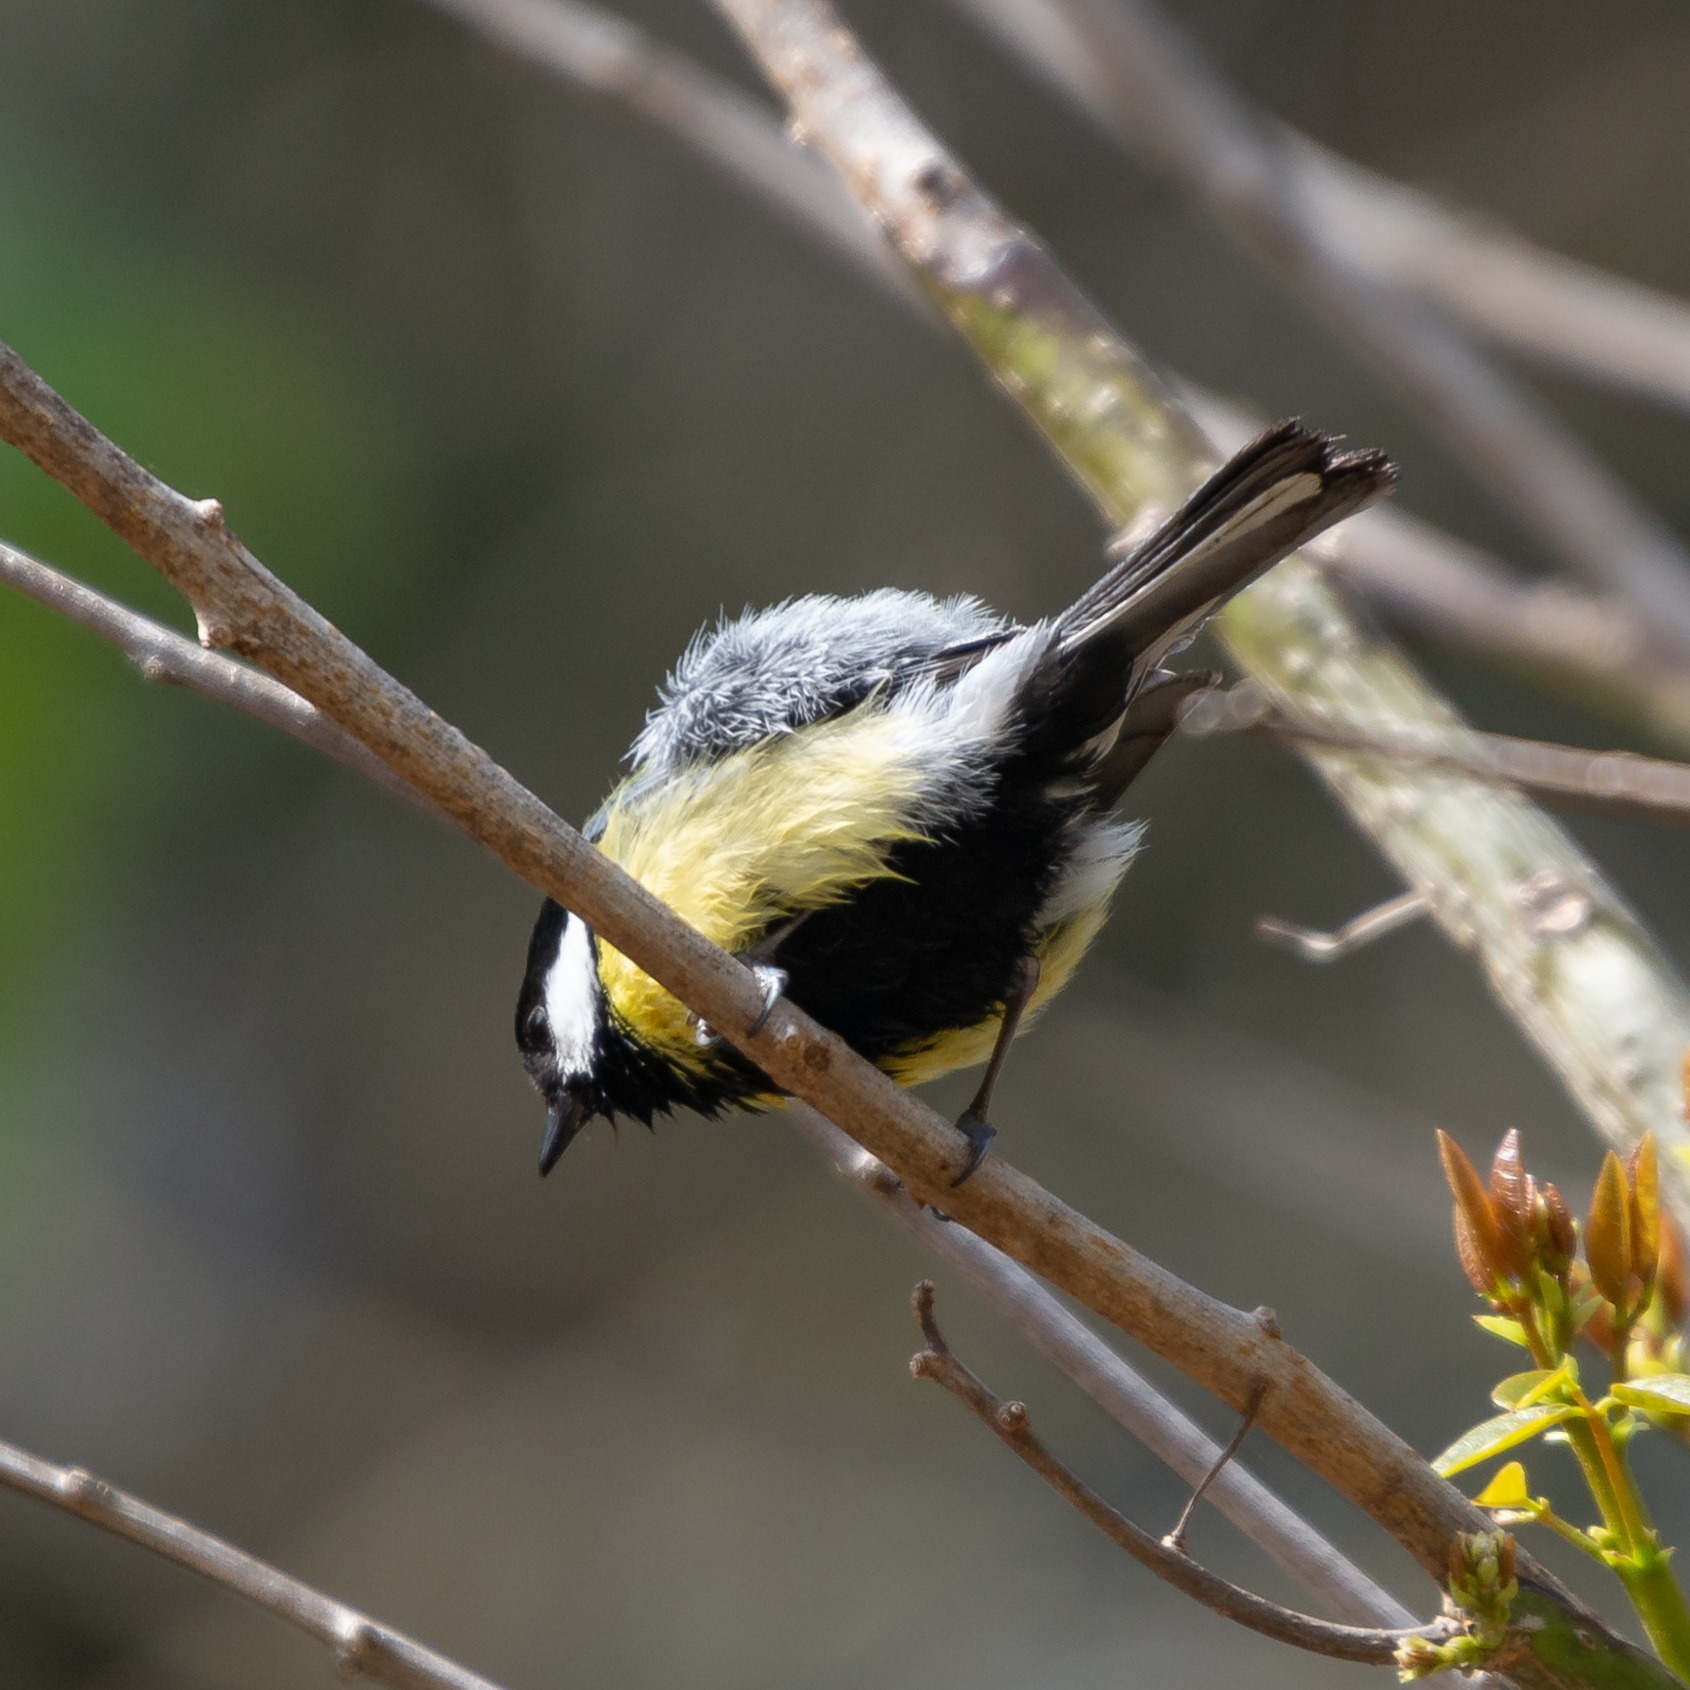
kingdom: Animalia
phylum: Chordata
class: Aves
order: Passeriformes
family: Paridae
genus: Parus
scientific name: Parus major
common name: Great tit
